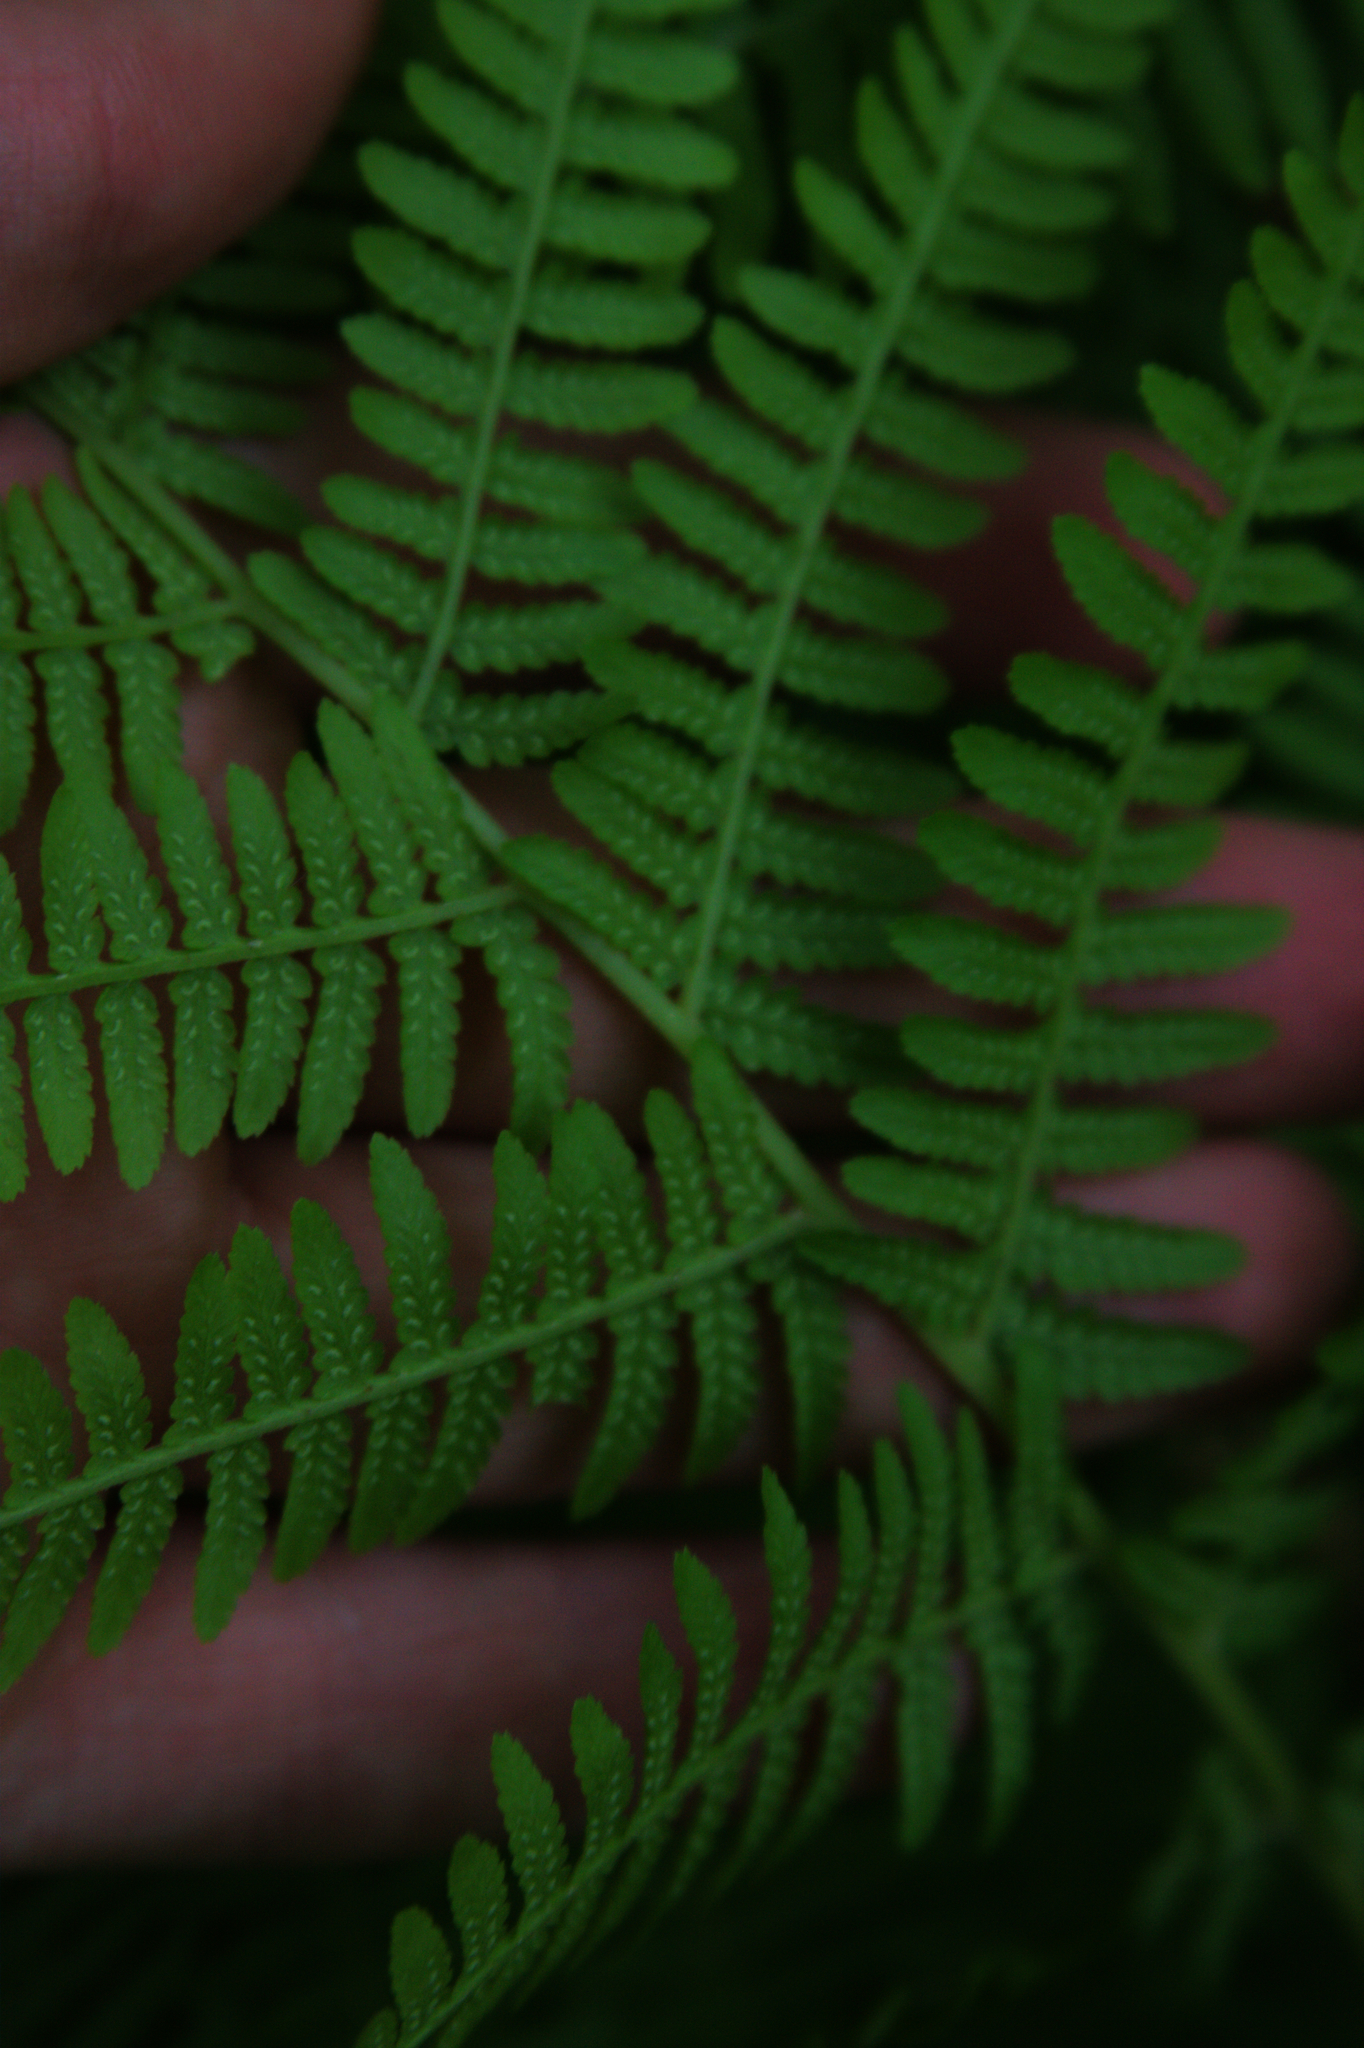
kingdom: Plantae
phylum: Tracheophyta
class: Polypodiopsida
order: Polypodiales
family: Athyriaceae
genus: Athyrium
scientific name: Athyrium angustum
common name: Northern lady fern
